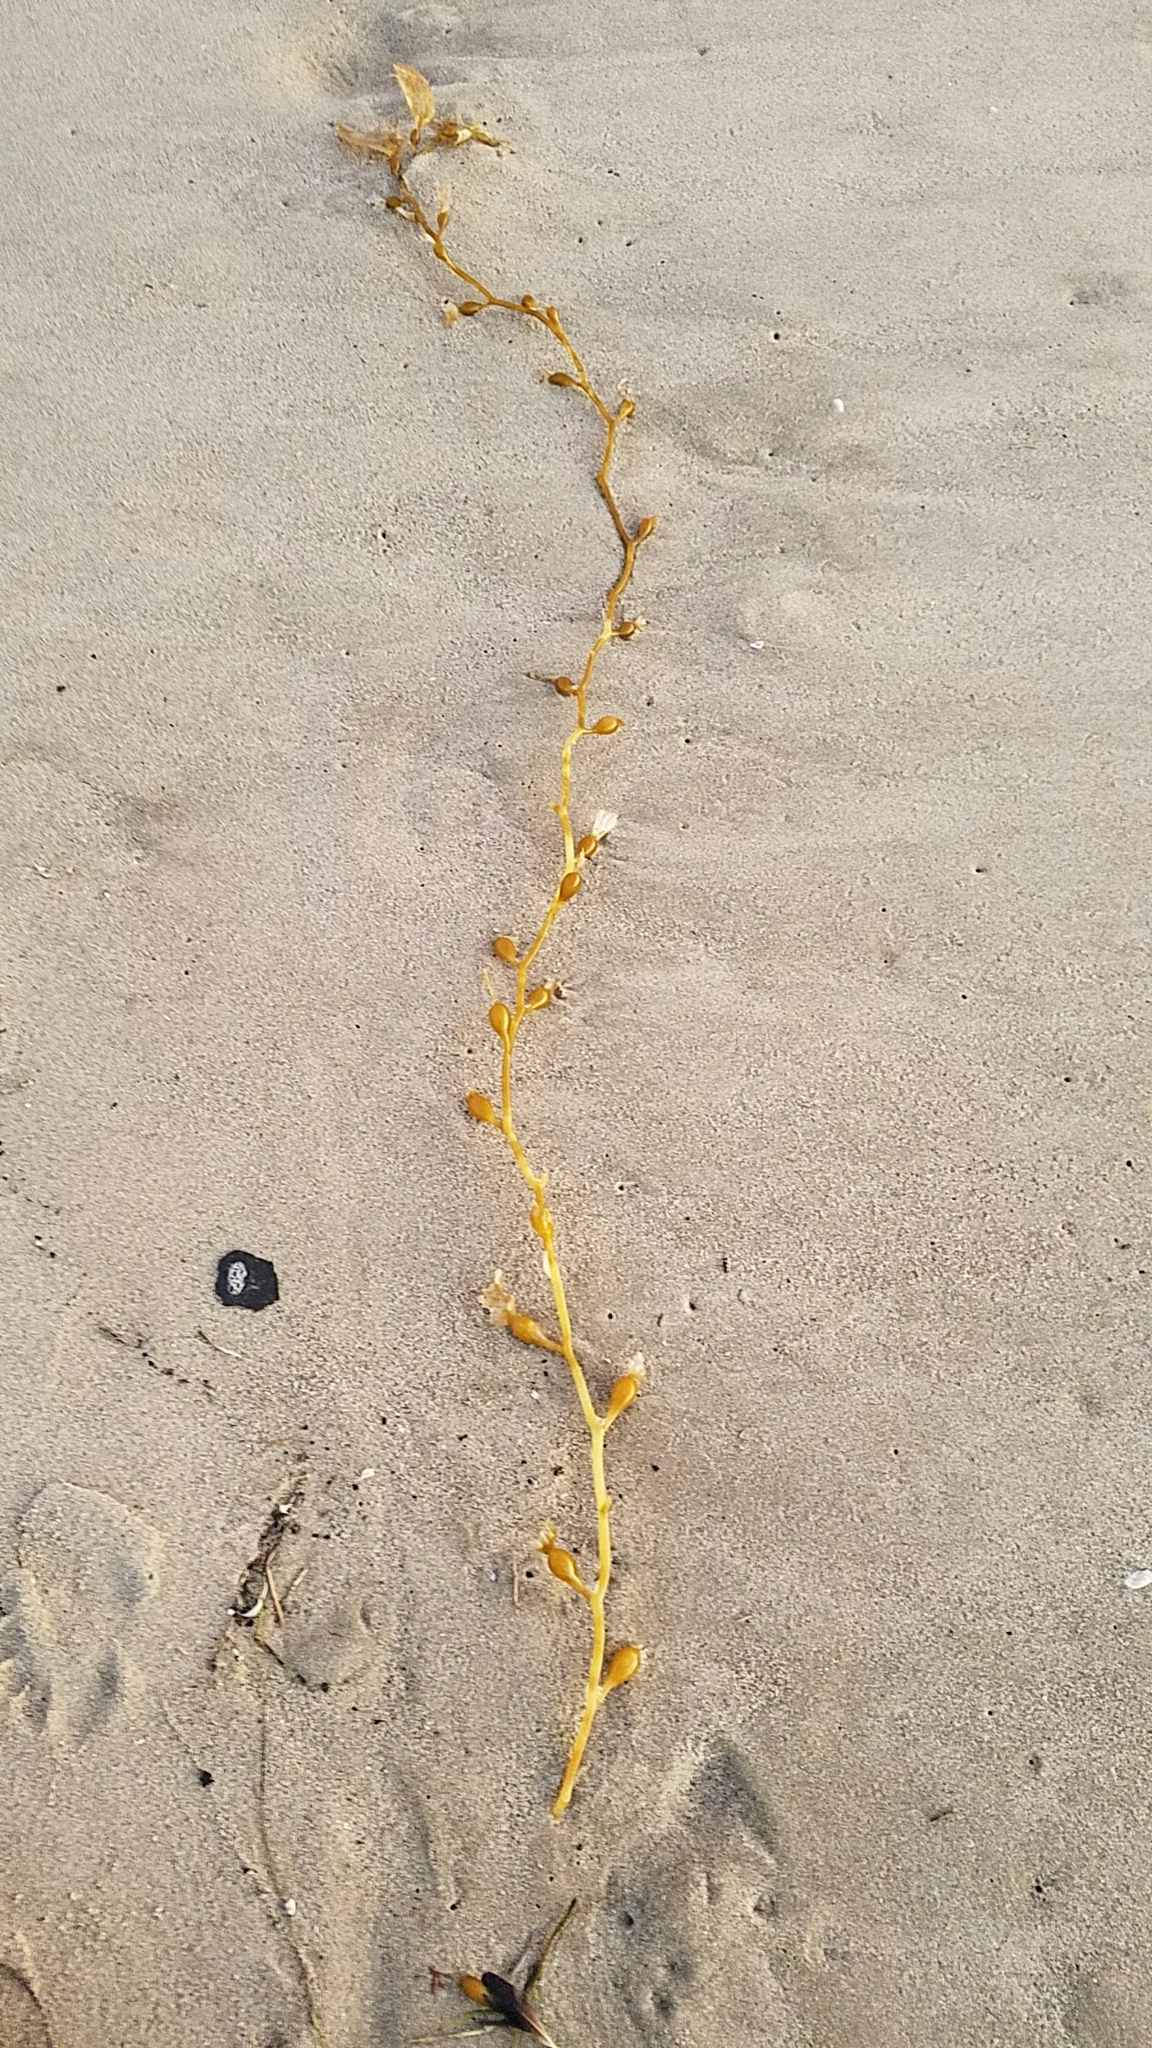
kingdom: Chromista
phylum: Ochrophyta
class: Phaeophyceae
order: Laminariales
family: Laminariaceae
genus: Macrocystis
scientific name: Macrocystis pyrifera
